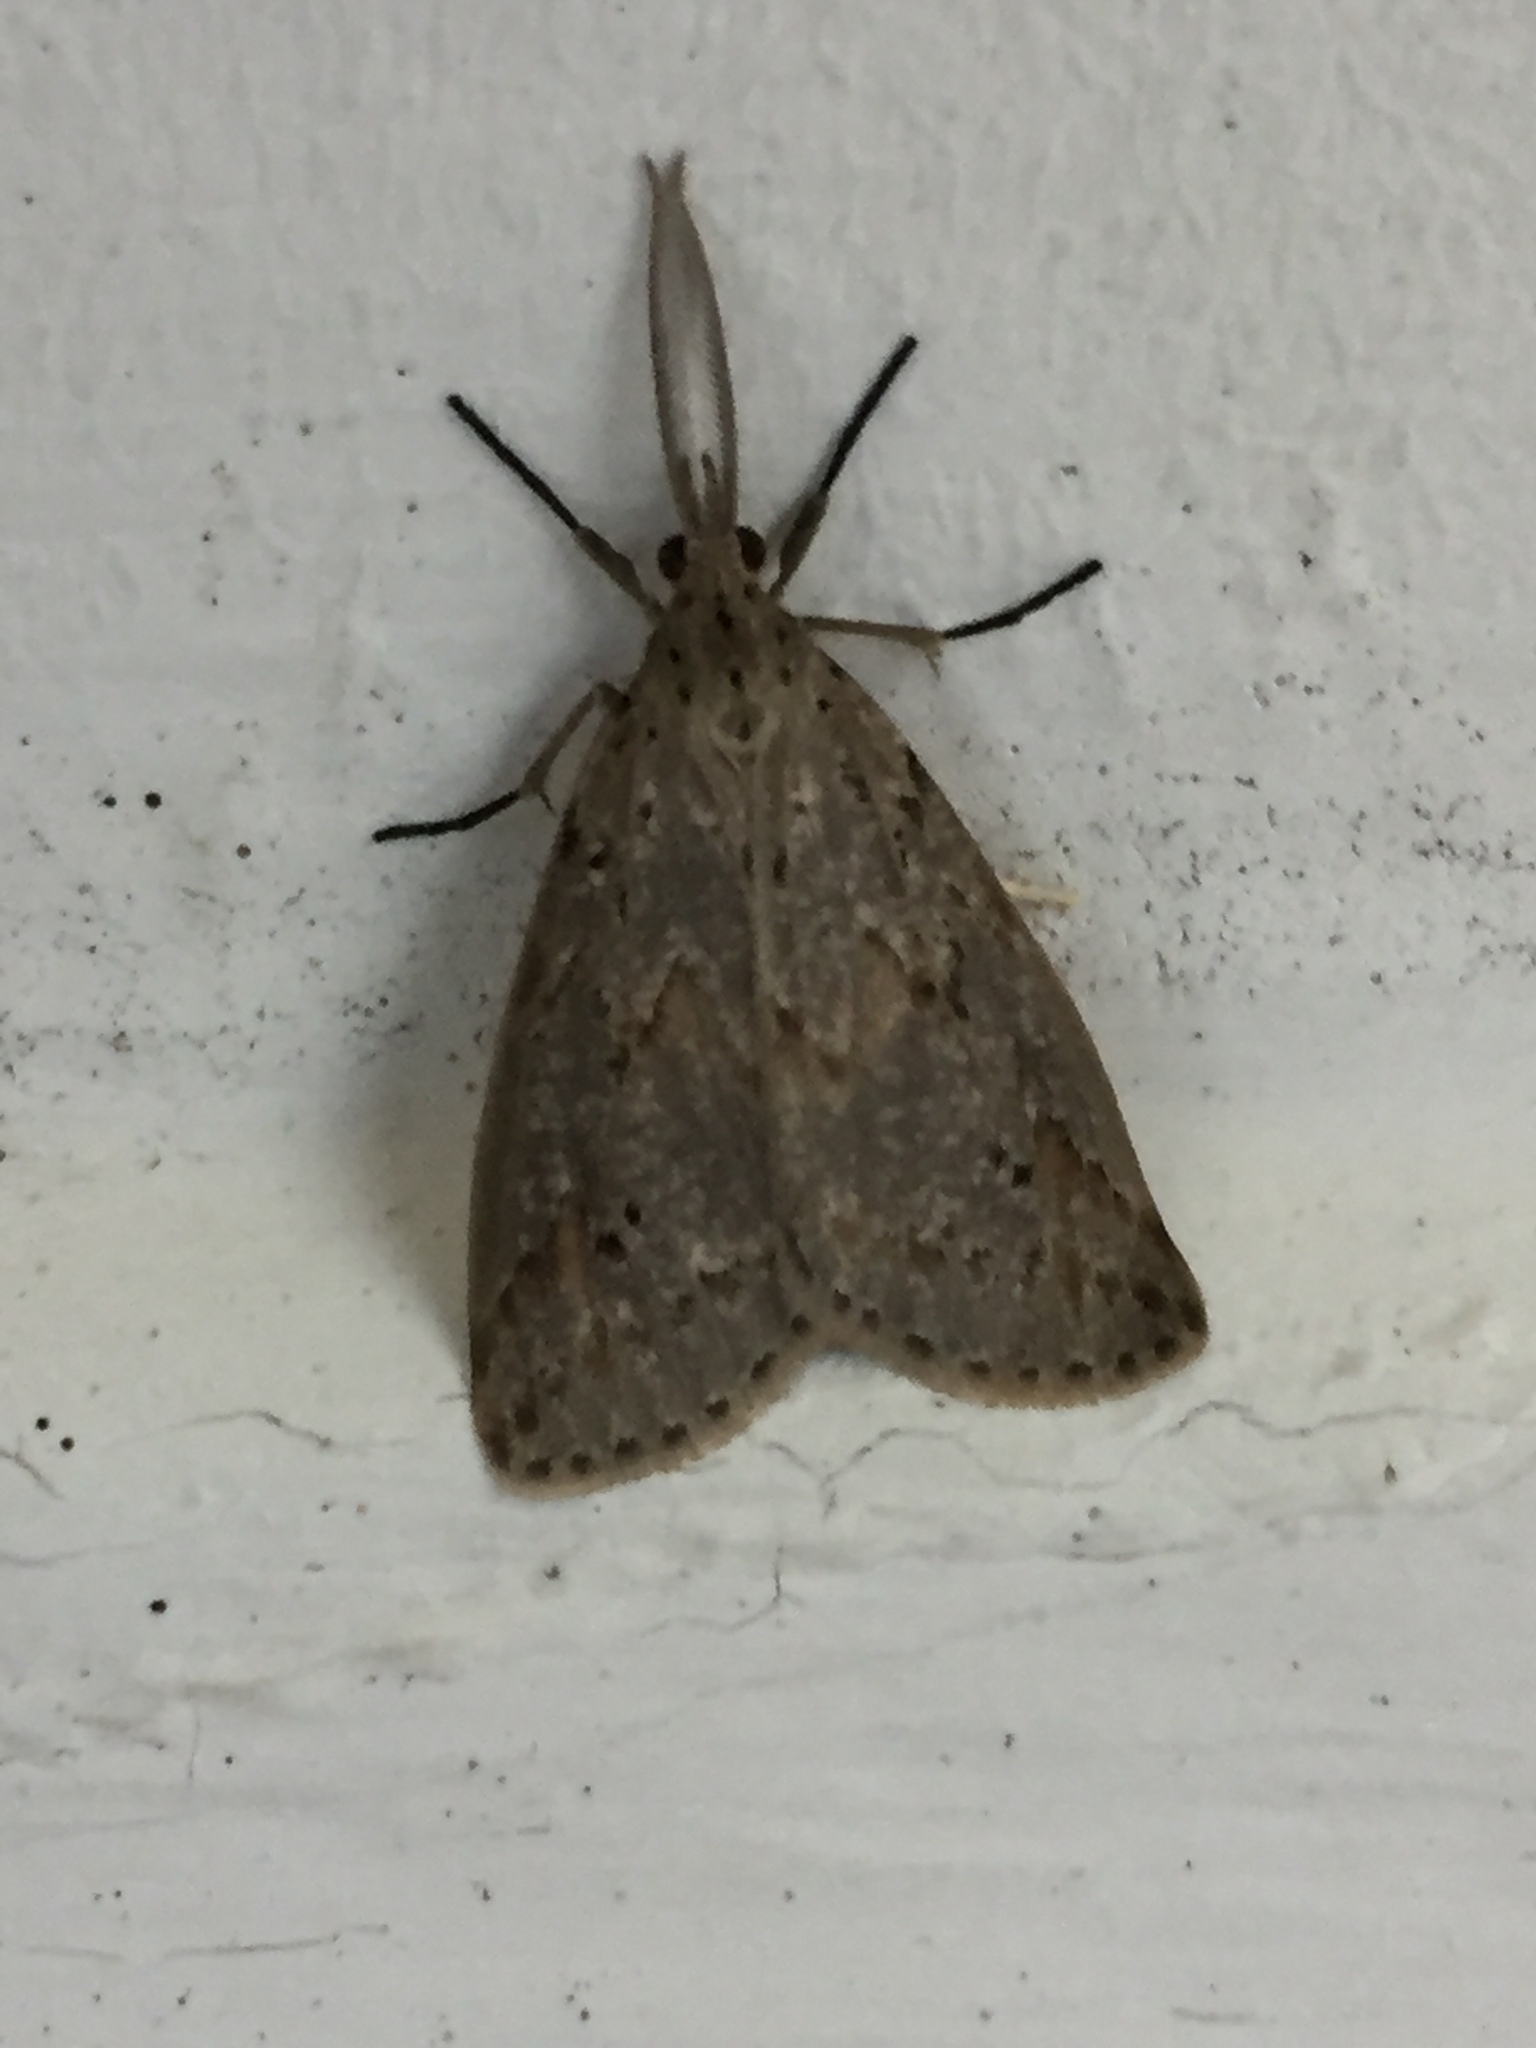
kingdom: Animalia
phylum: Arthropoda
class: Insecta
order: Lepidoptera
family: Erebidae
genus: Galtara
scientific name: Galtara rostrata
